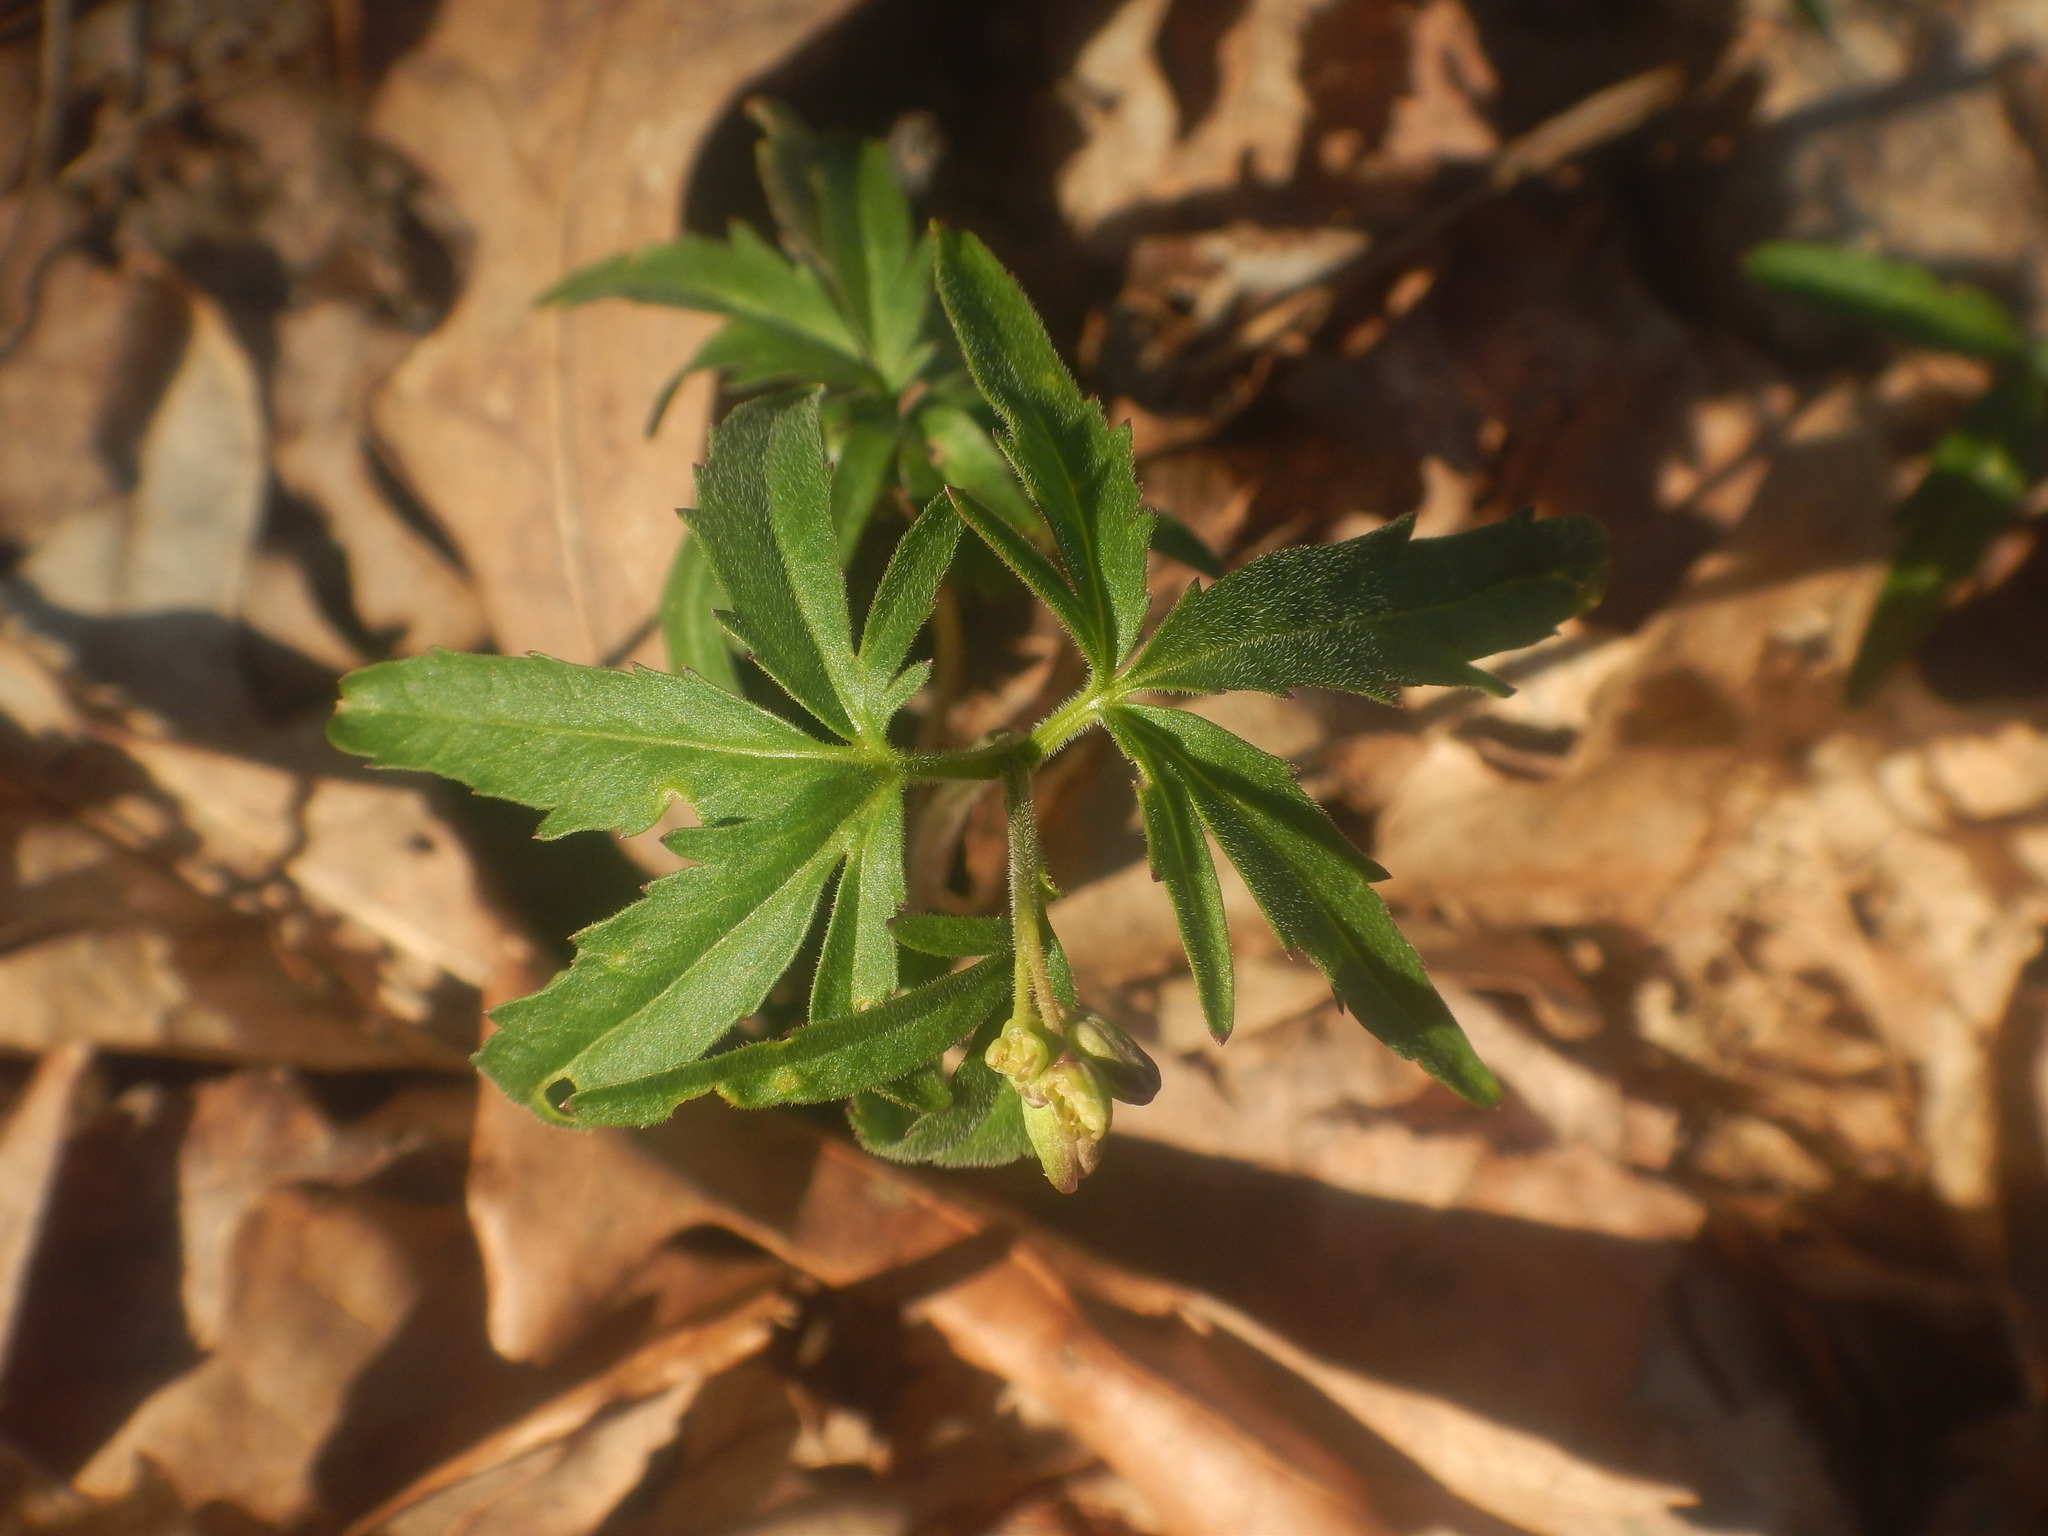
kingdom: Plantae
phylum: Tracheophyta
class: Magnoliopsida
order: Brassicales
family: Brassicaceae
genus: Cardamine
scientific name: Cardamine concatenata
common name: Cut-leaf toothcup
